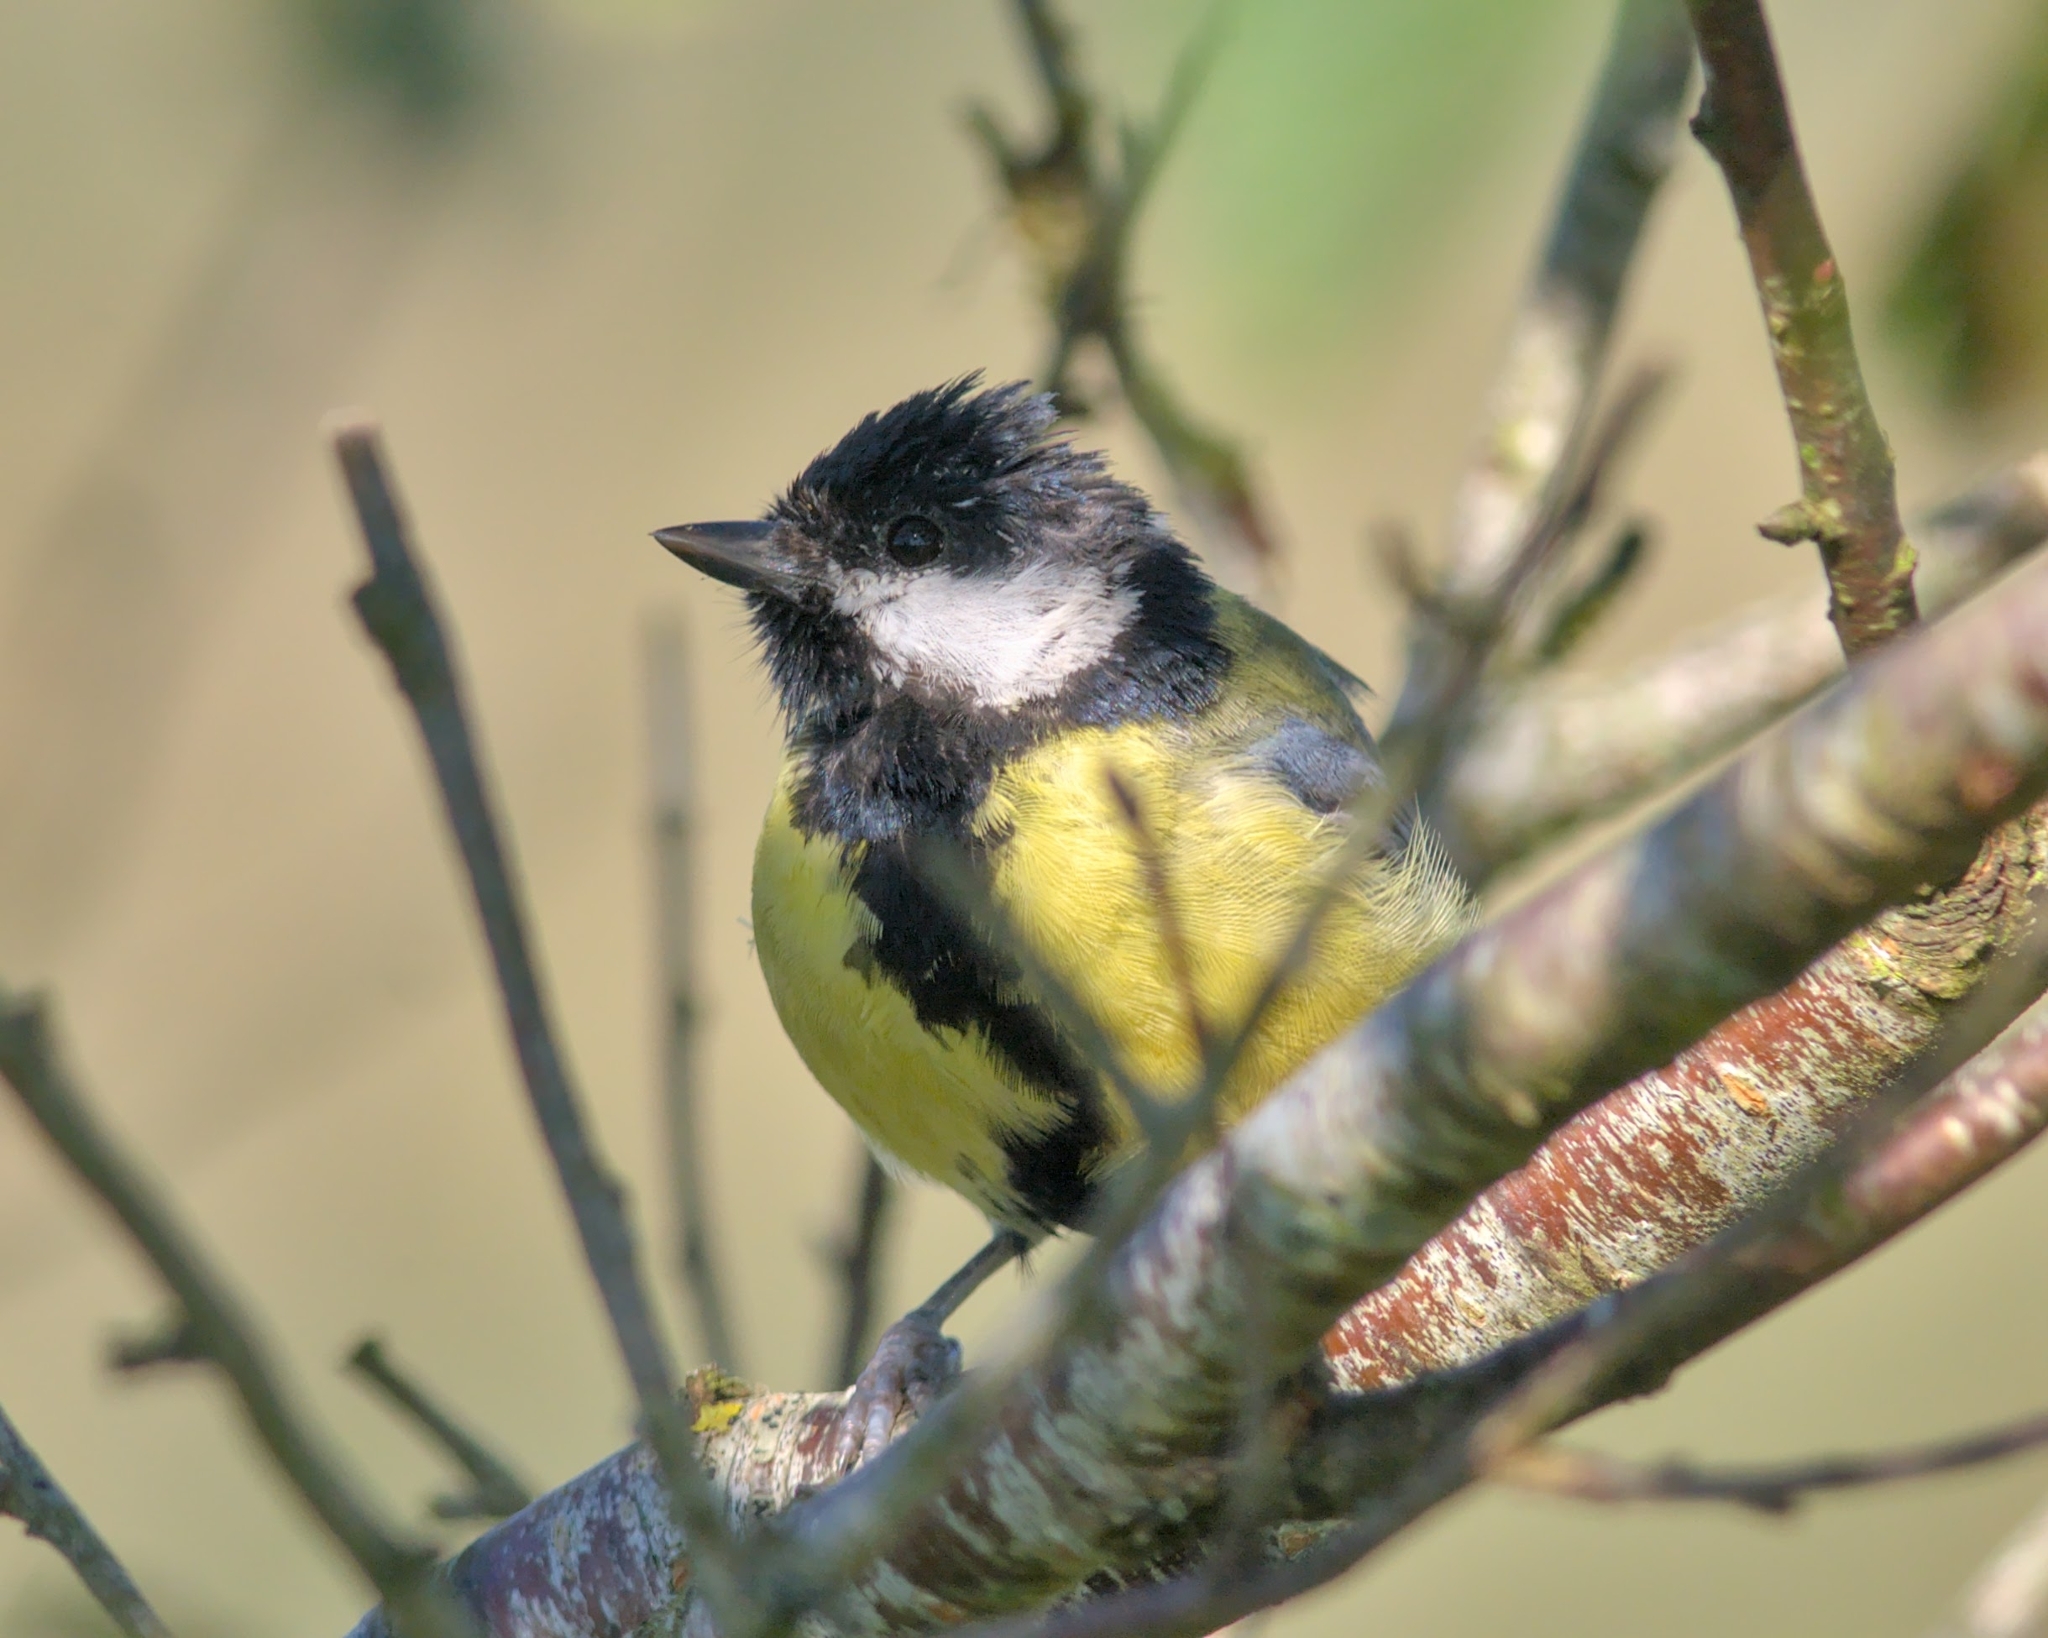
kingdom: Animalia
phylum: Chordata
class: Aves
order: Passeriformes
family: Paridae
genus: Parus
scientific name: Parus major
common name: Great tit
